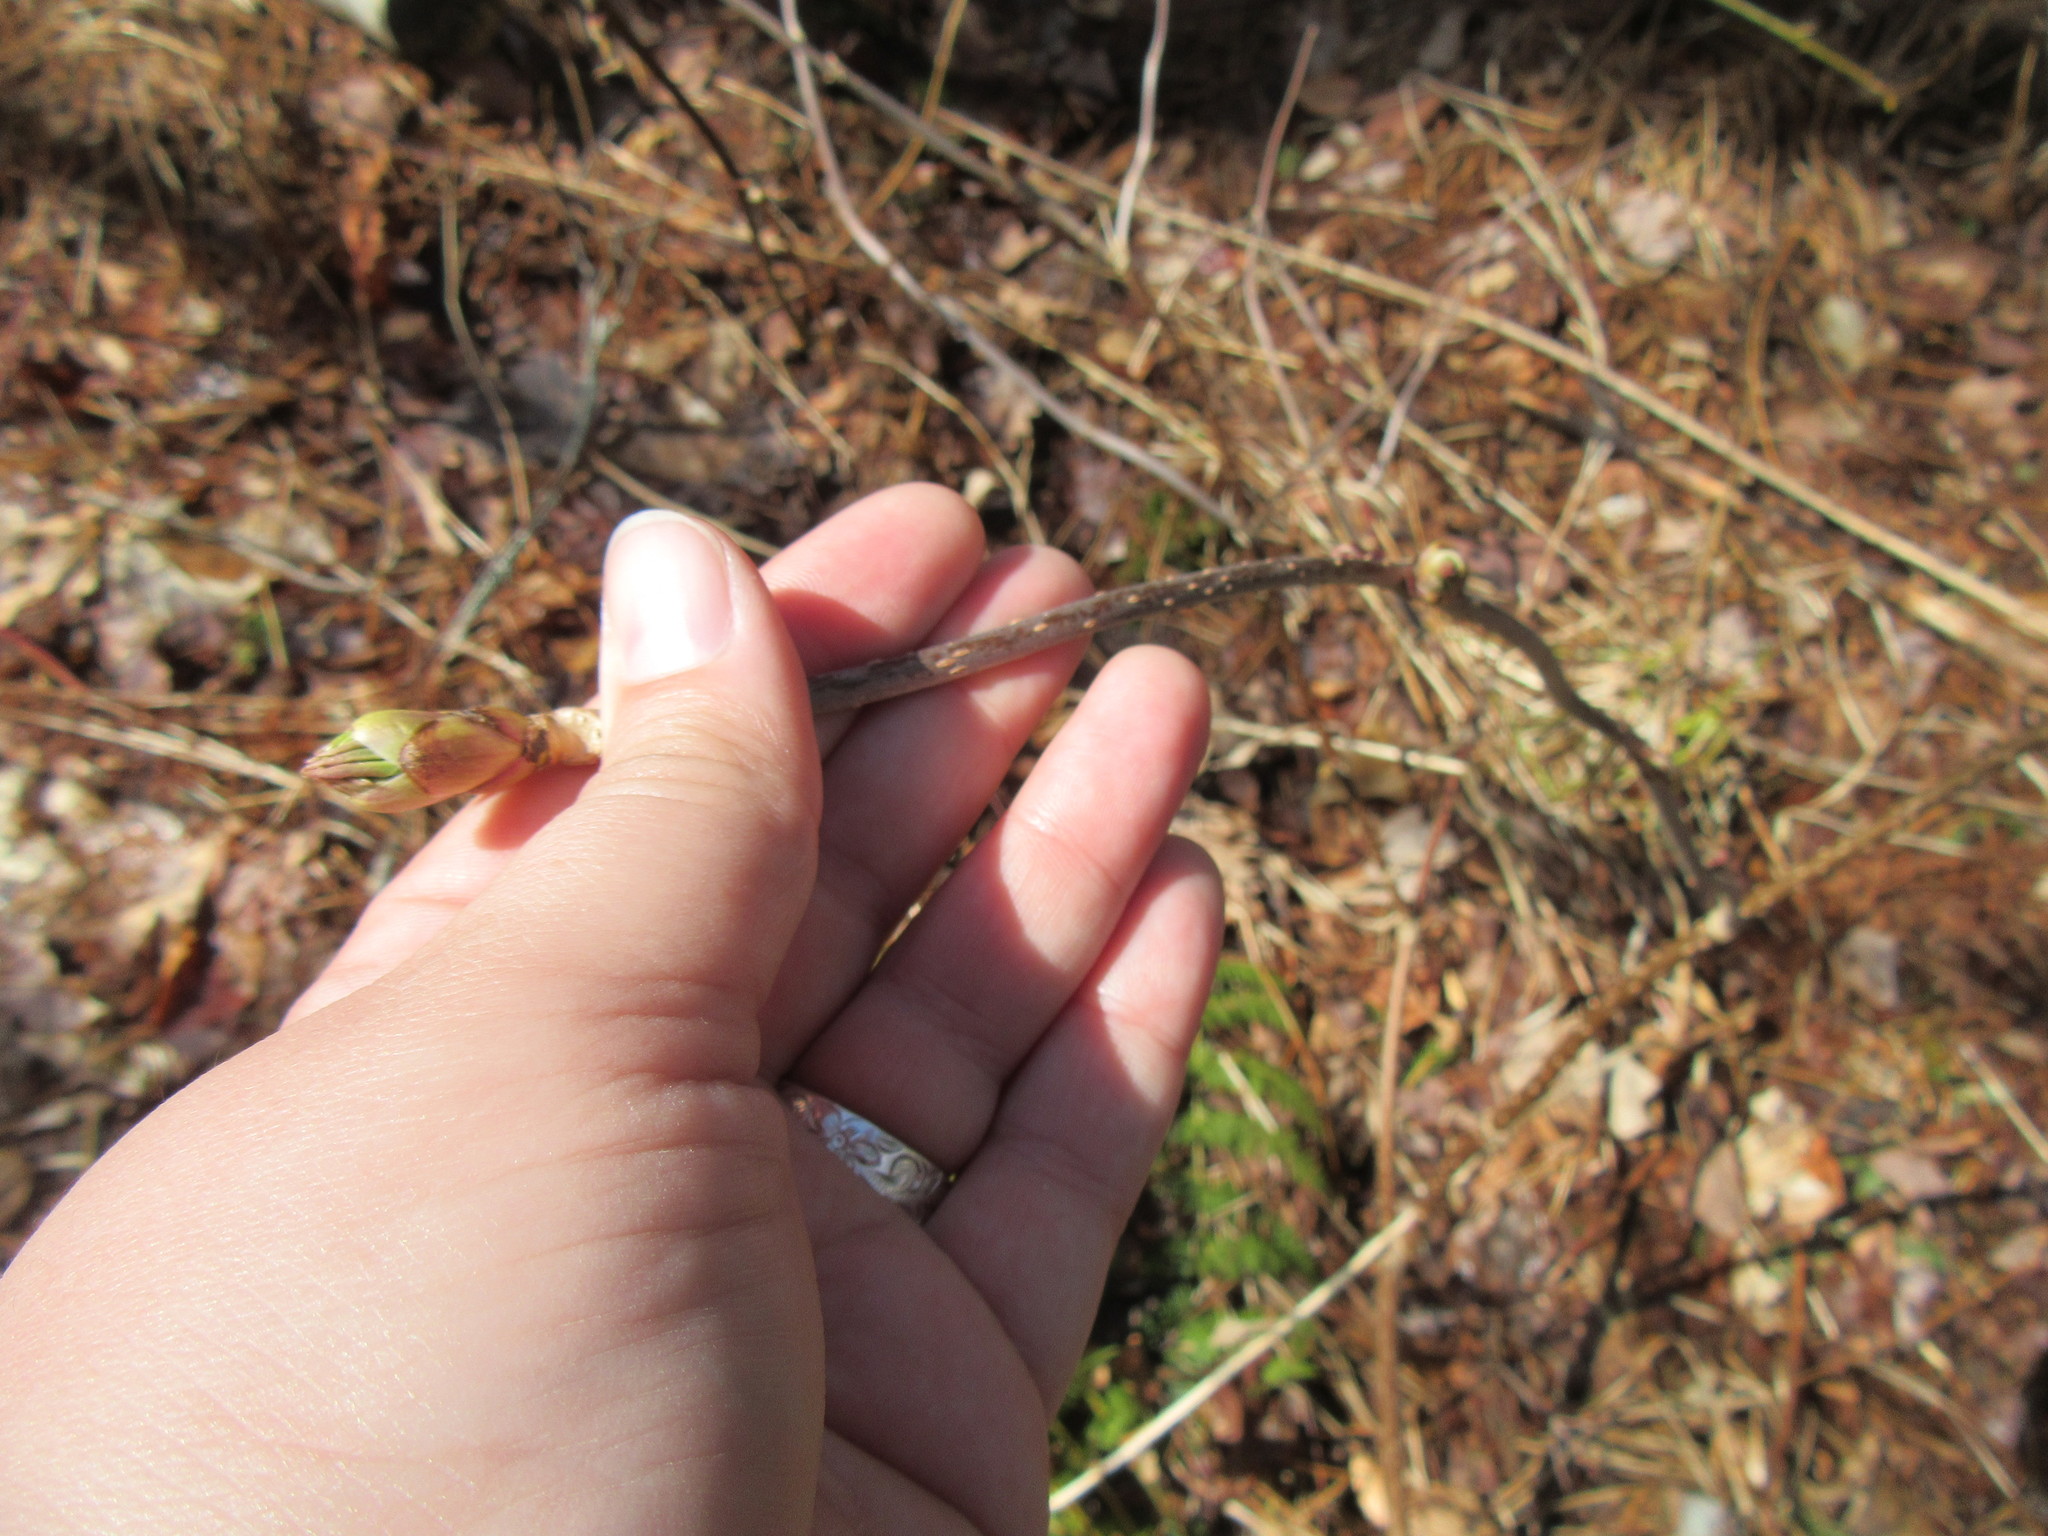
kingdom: Plantae
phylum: Tracheophyta
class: Magnoliopsida
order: Dipsacales
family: Viburnaceae
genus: Sambucus
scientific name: Sambucus racemosa
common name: Red-berried elder
